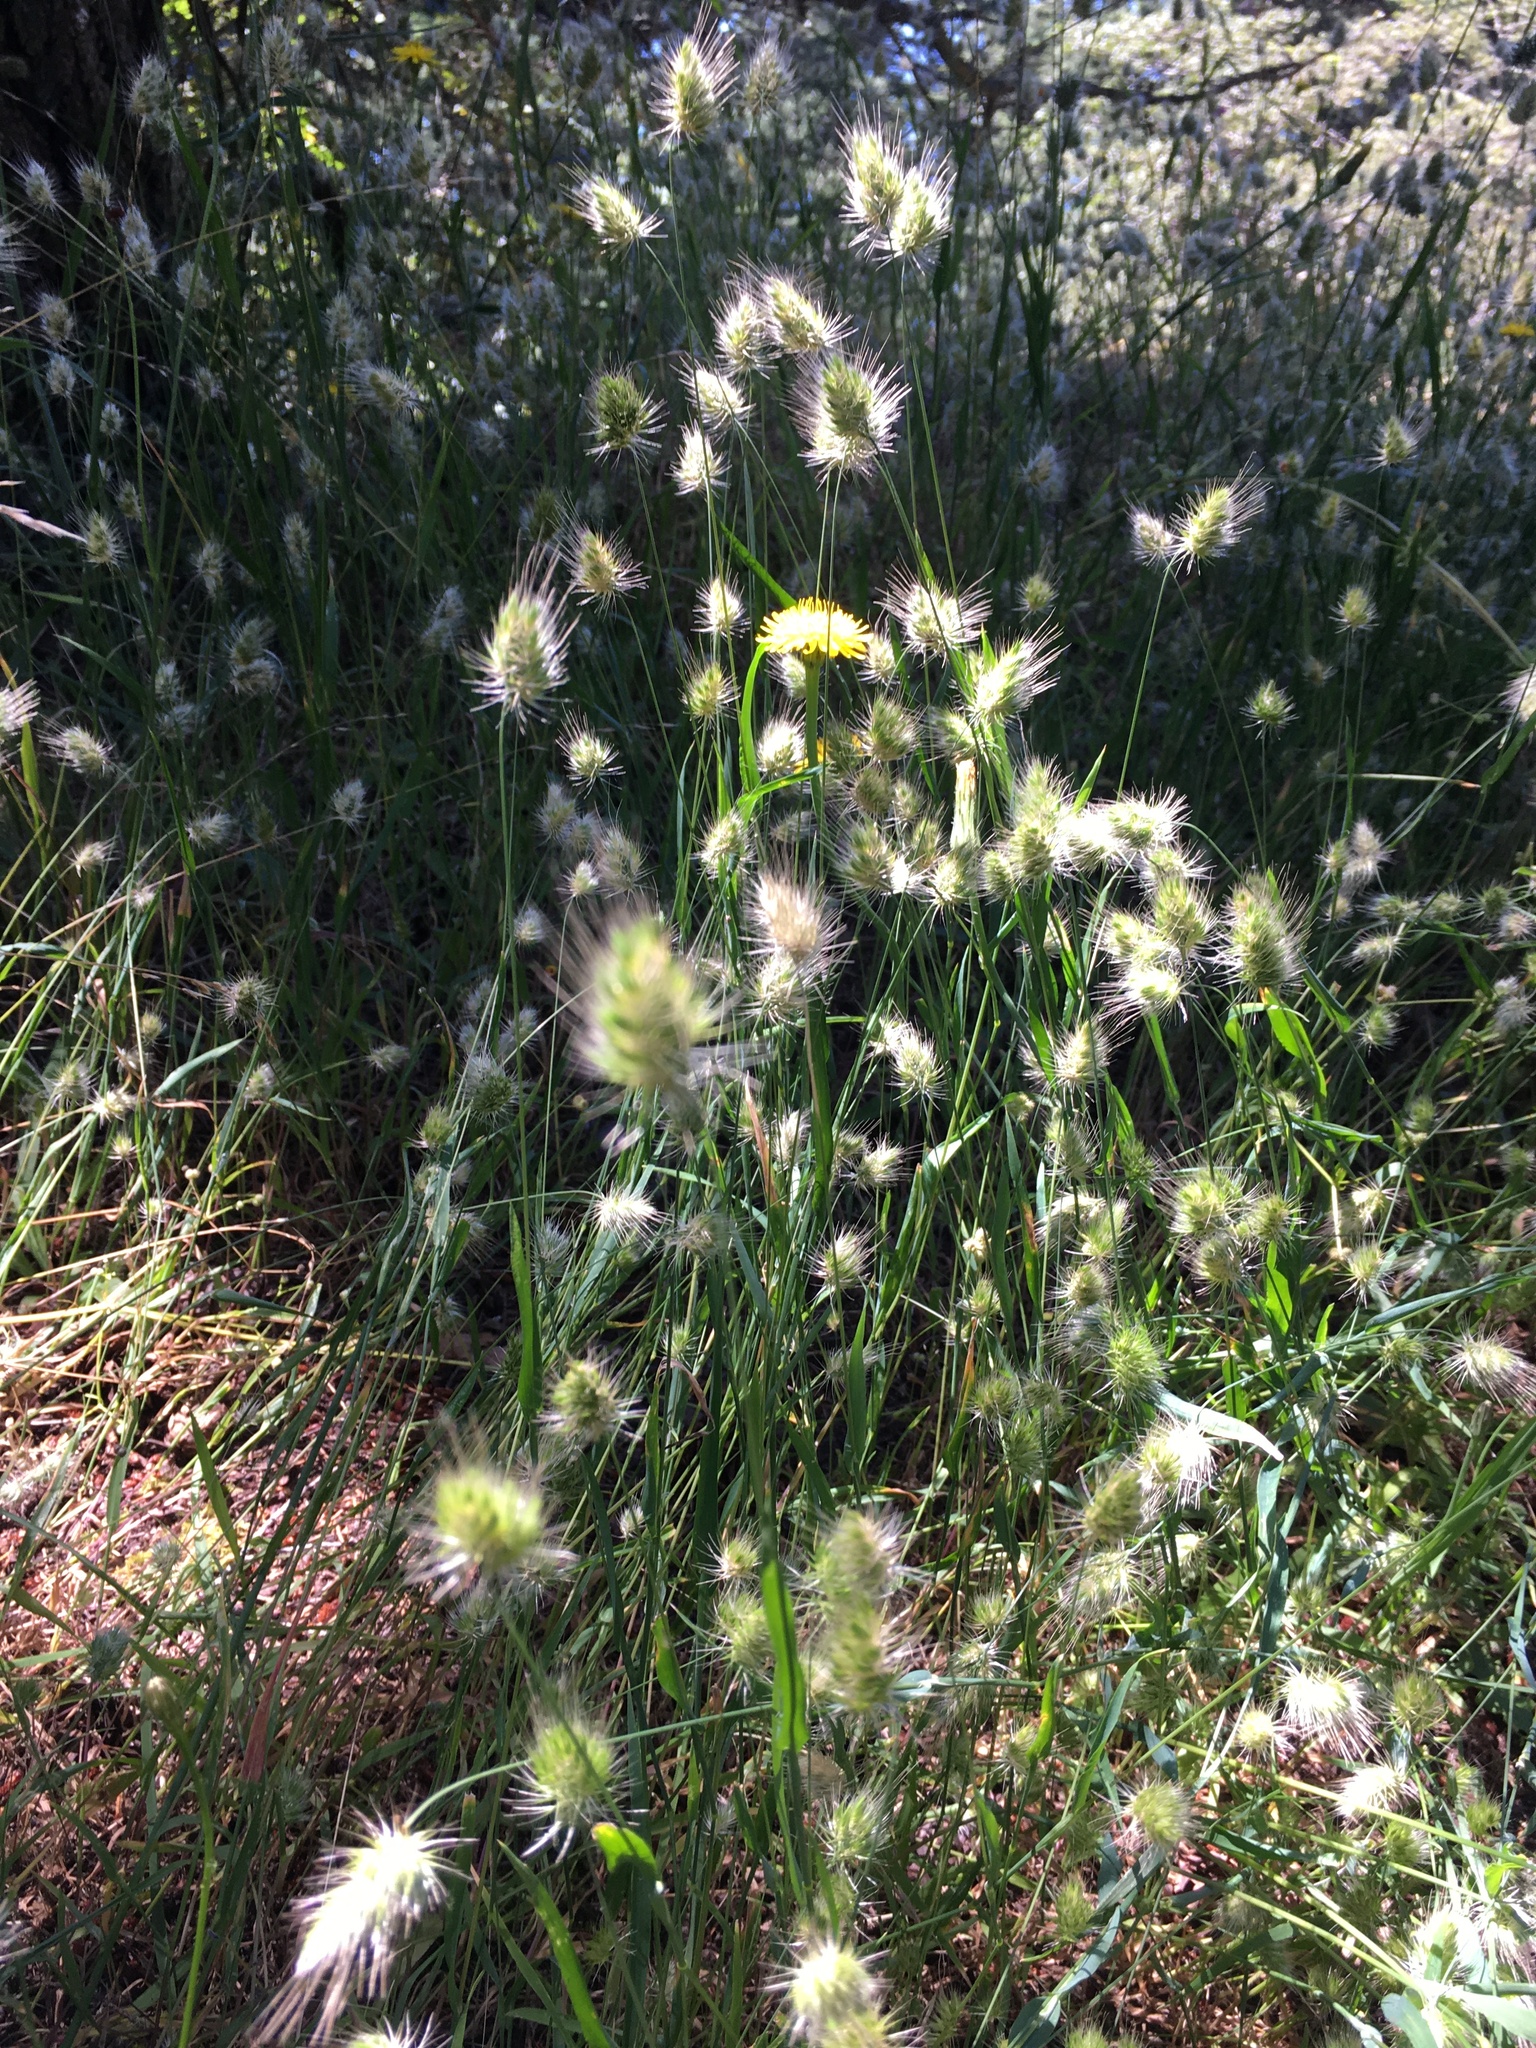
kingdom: Plantae
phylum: Tracheophyta
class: Liliopsida
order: Poales
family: Poaceae
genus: Cynosurus
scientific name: Cynosurus echinatus
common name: Rough dog's-tail
